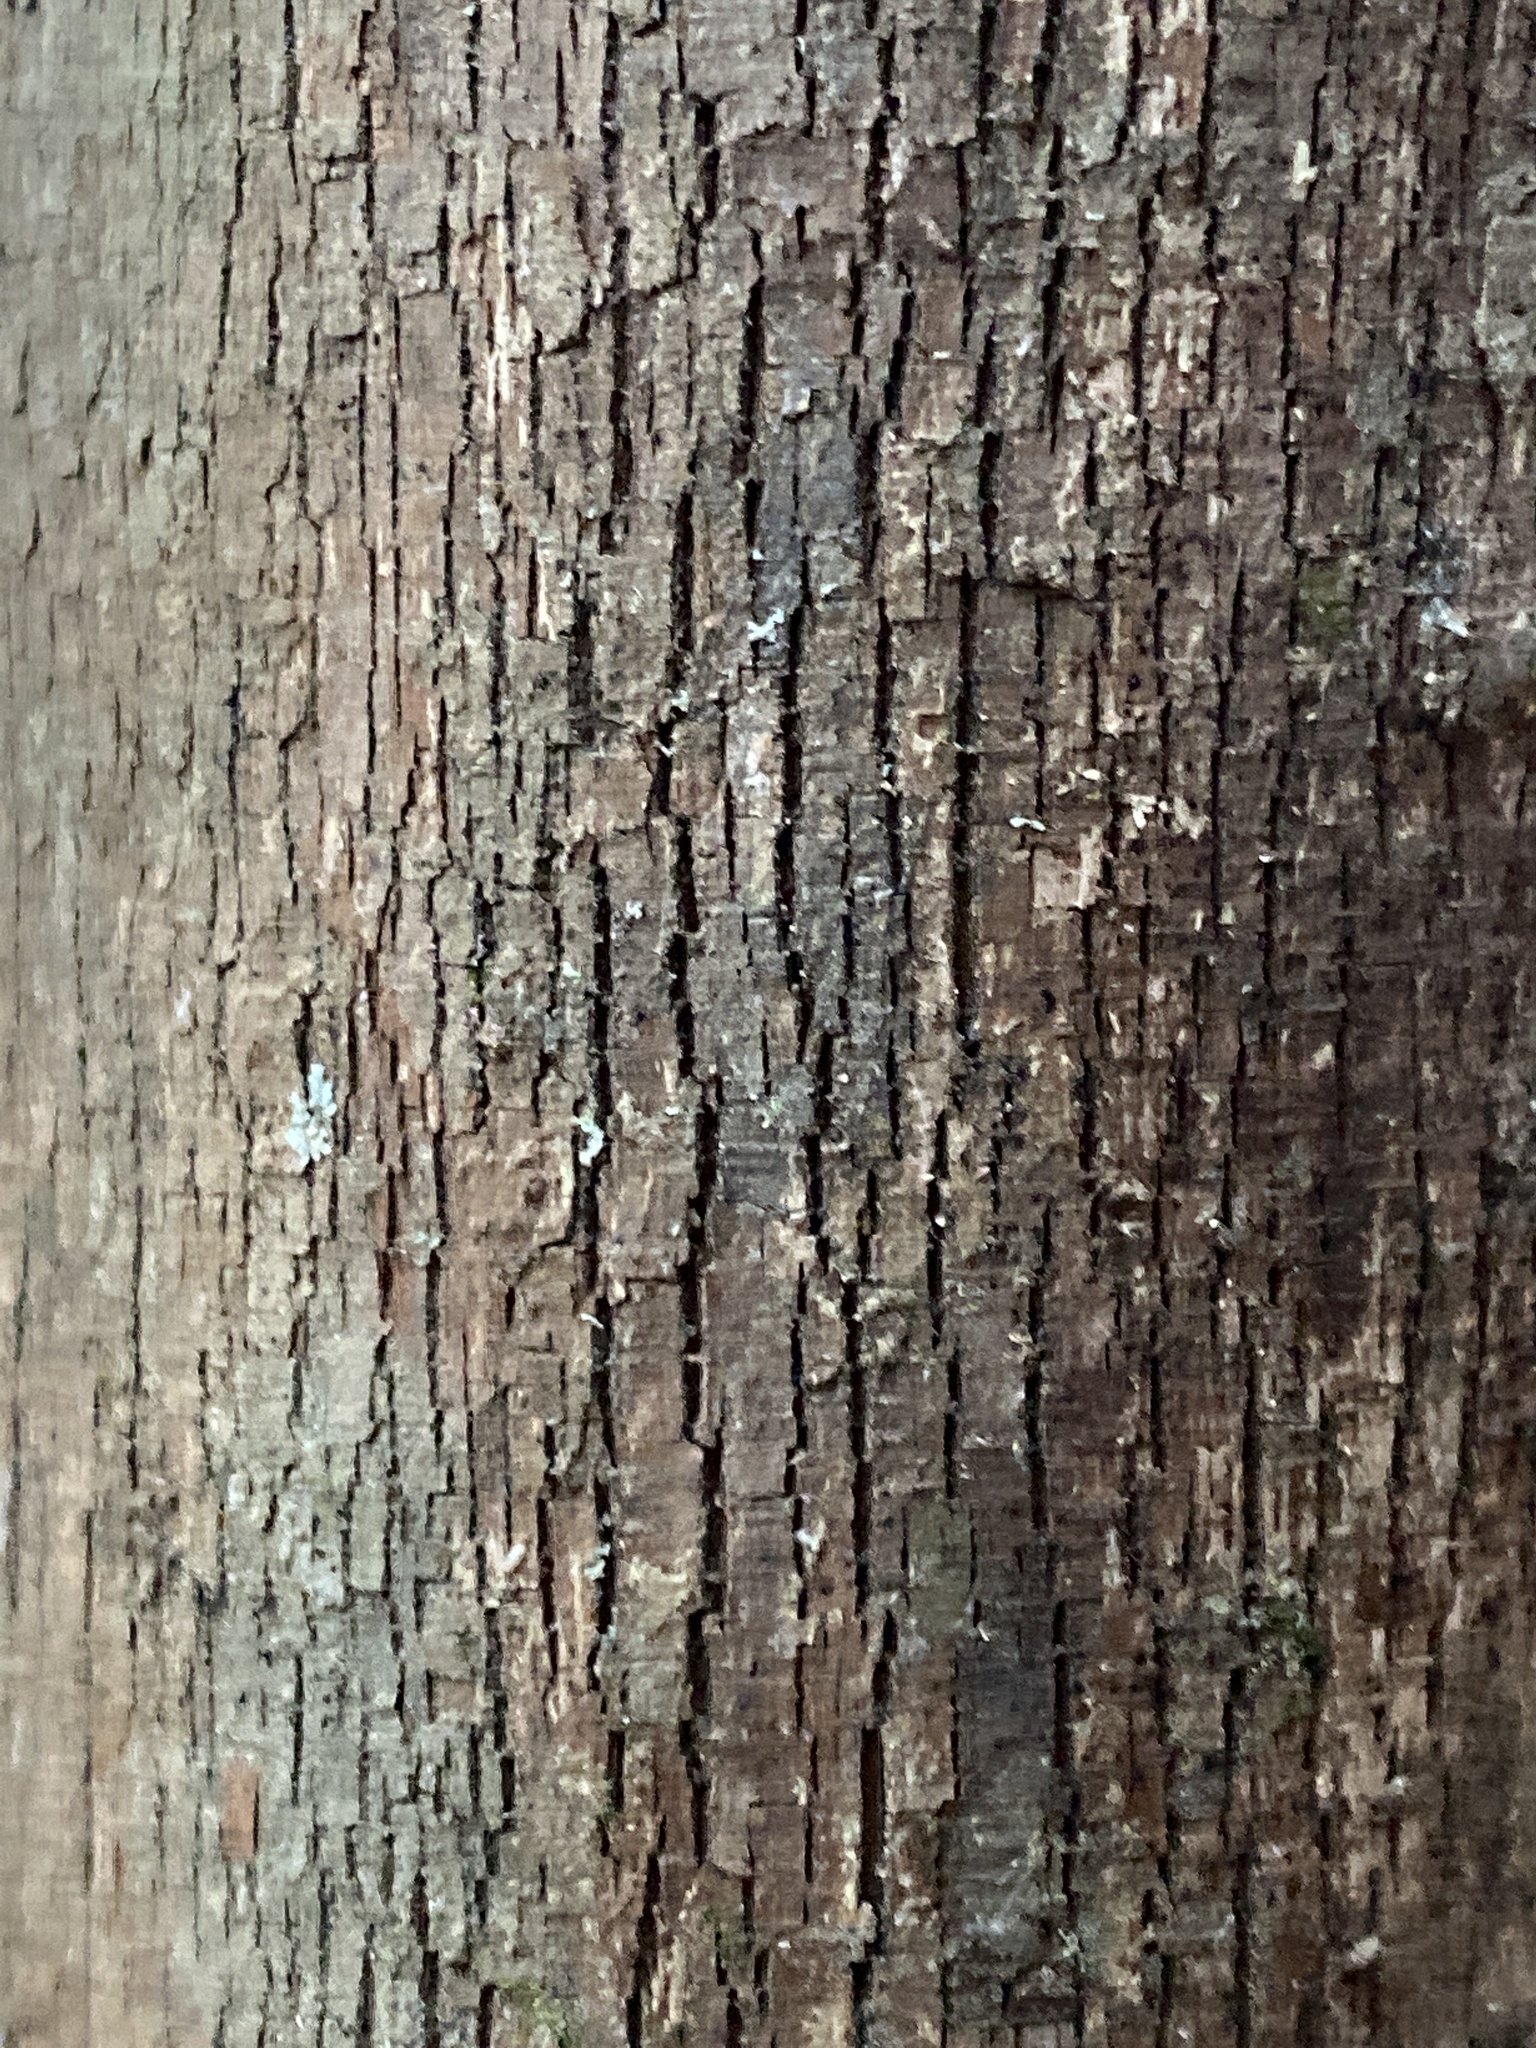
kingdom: Plantae
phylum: Tracheophyta
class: Magnoliopsida
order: Ericales
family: Ericaceae
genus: Vaccinium
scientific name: Vaccinium arboreum
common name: Farkleberry
